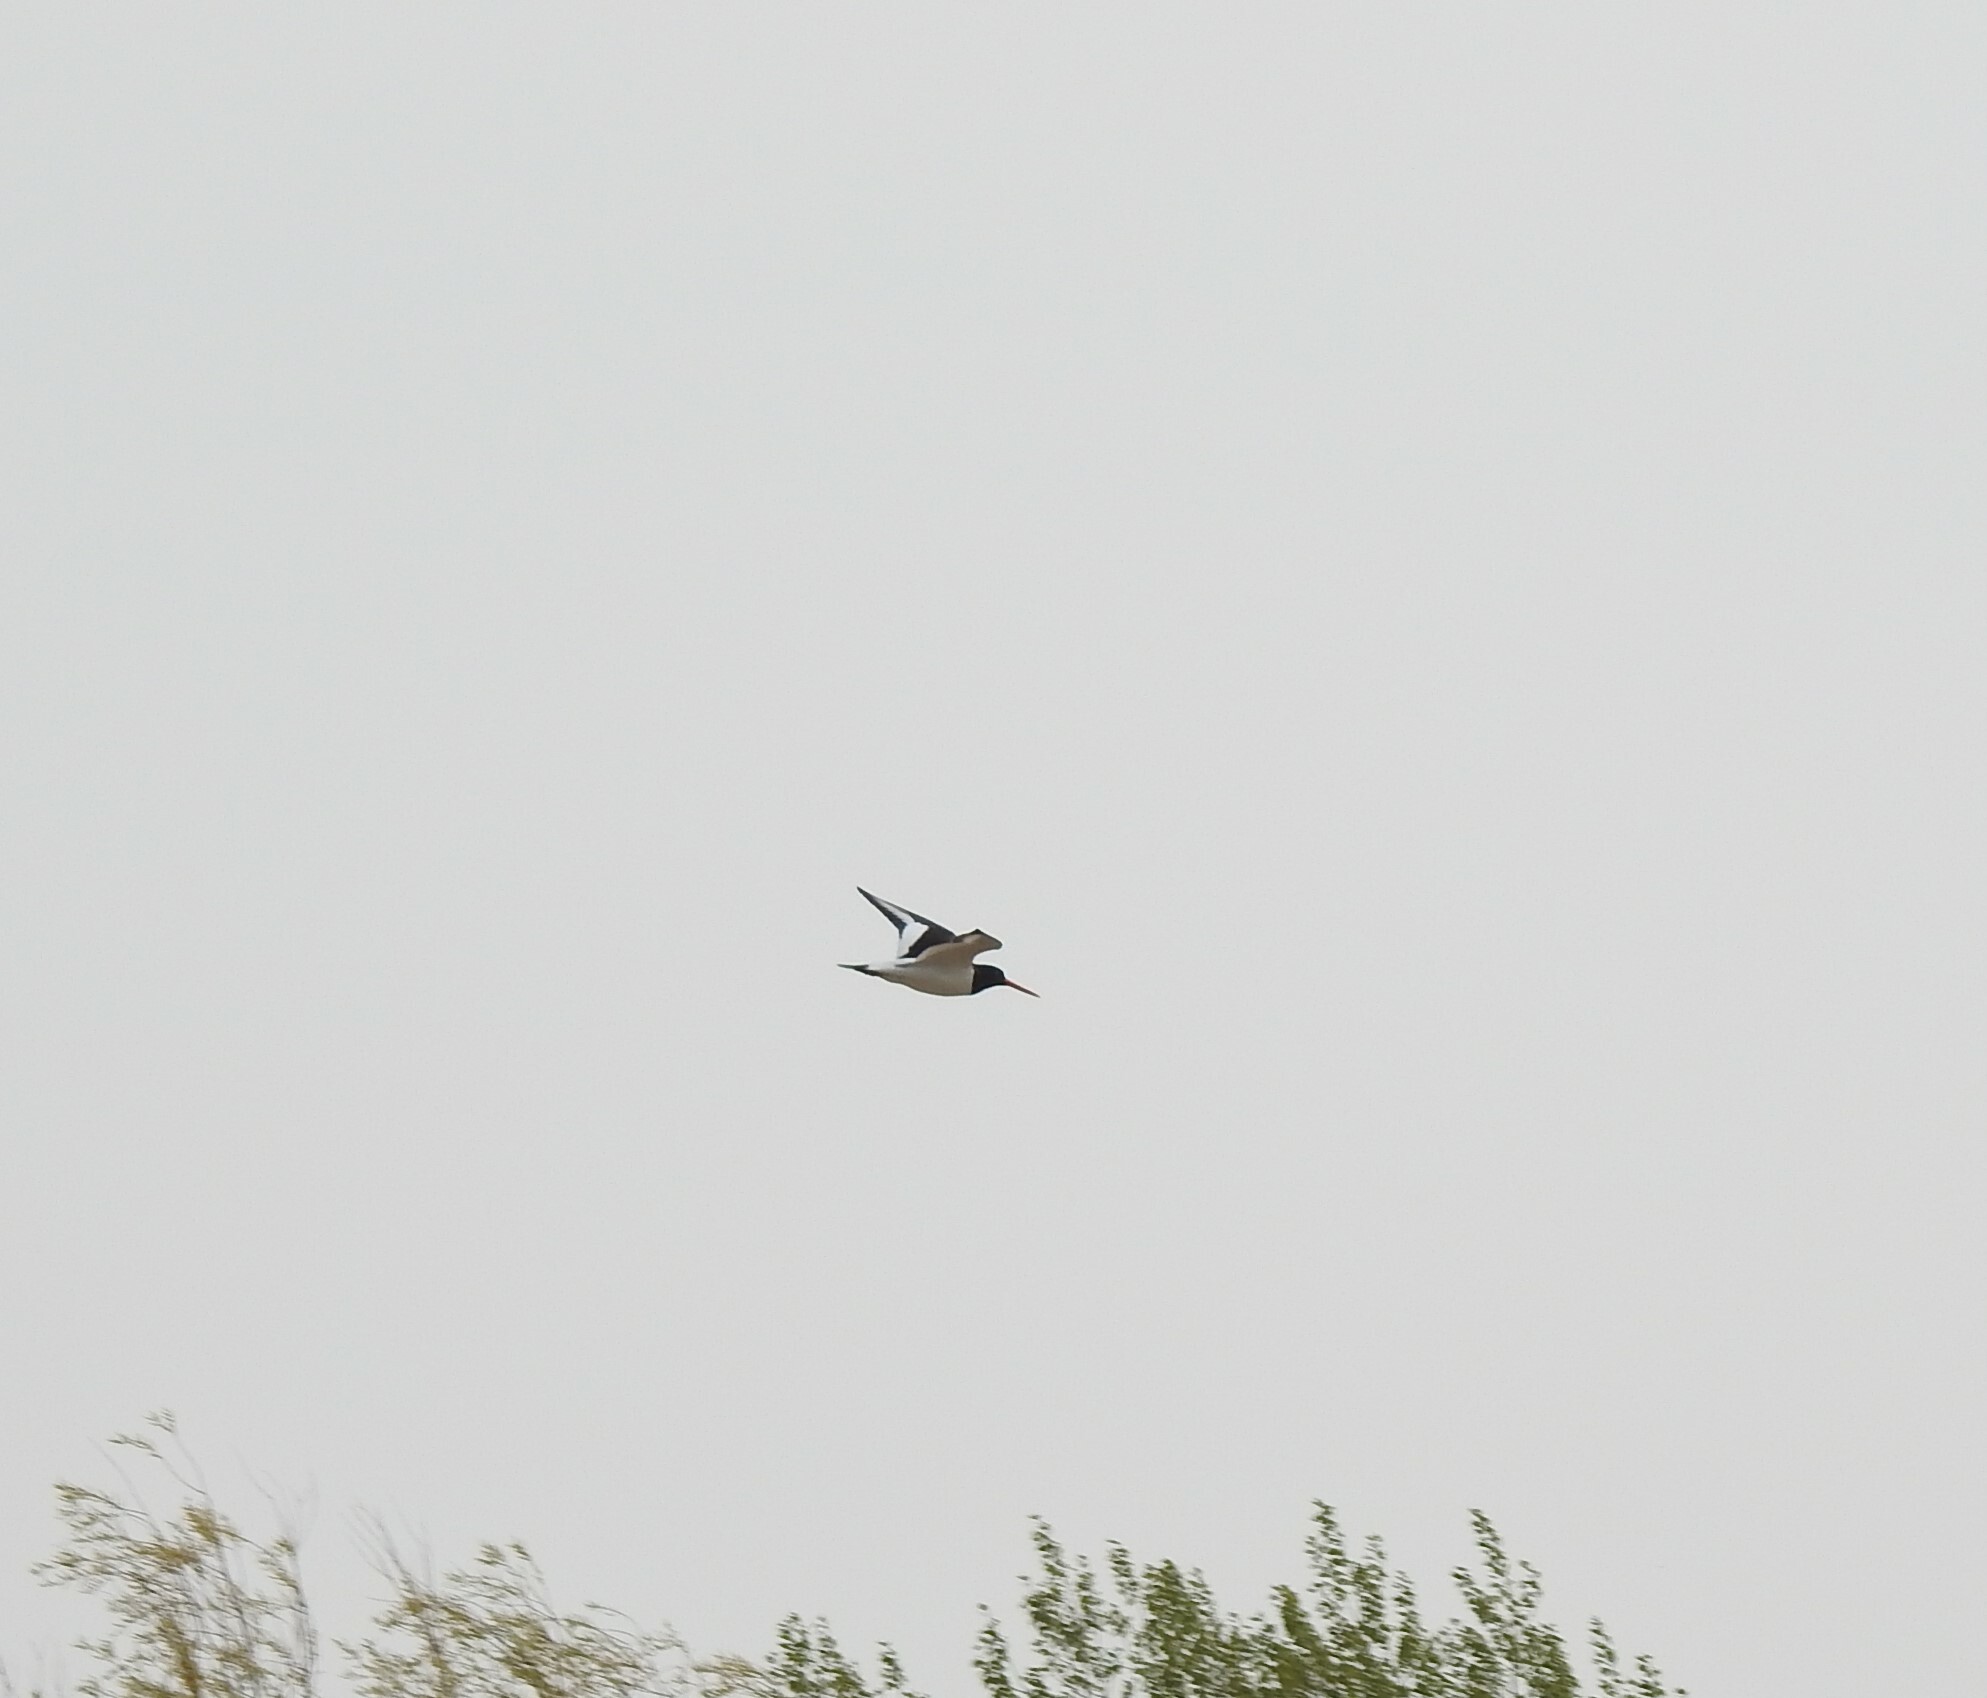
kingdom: Animalia
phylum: Chordata
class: Aves
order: Charadriiformes
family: Haematopodidae
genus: Haematopus
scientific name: Haematopus ostralegus
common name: Eurasian oystercatcher
